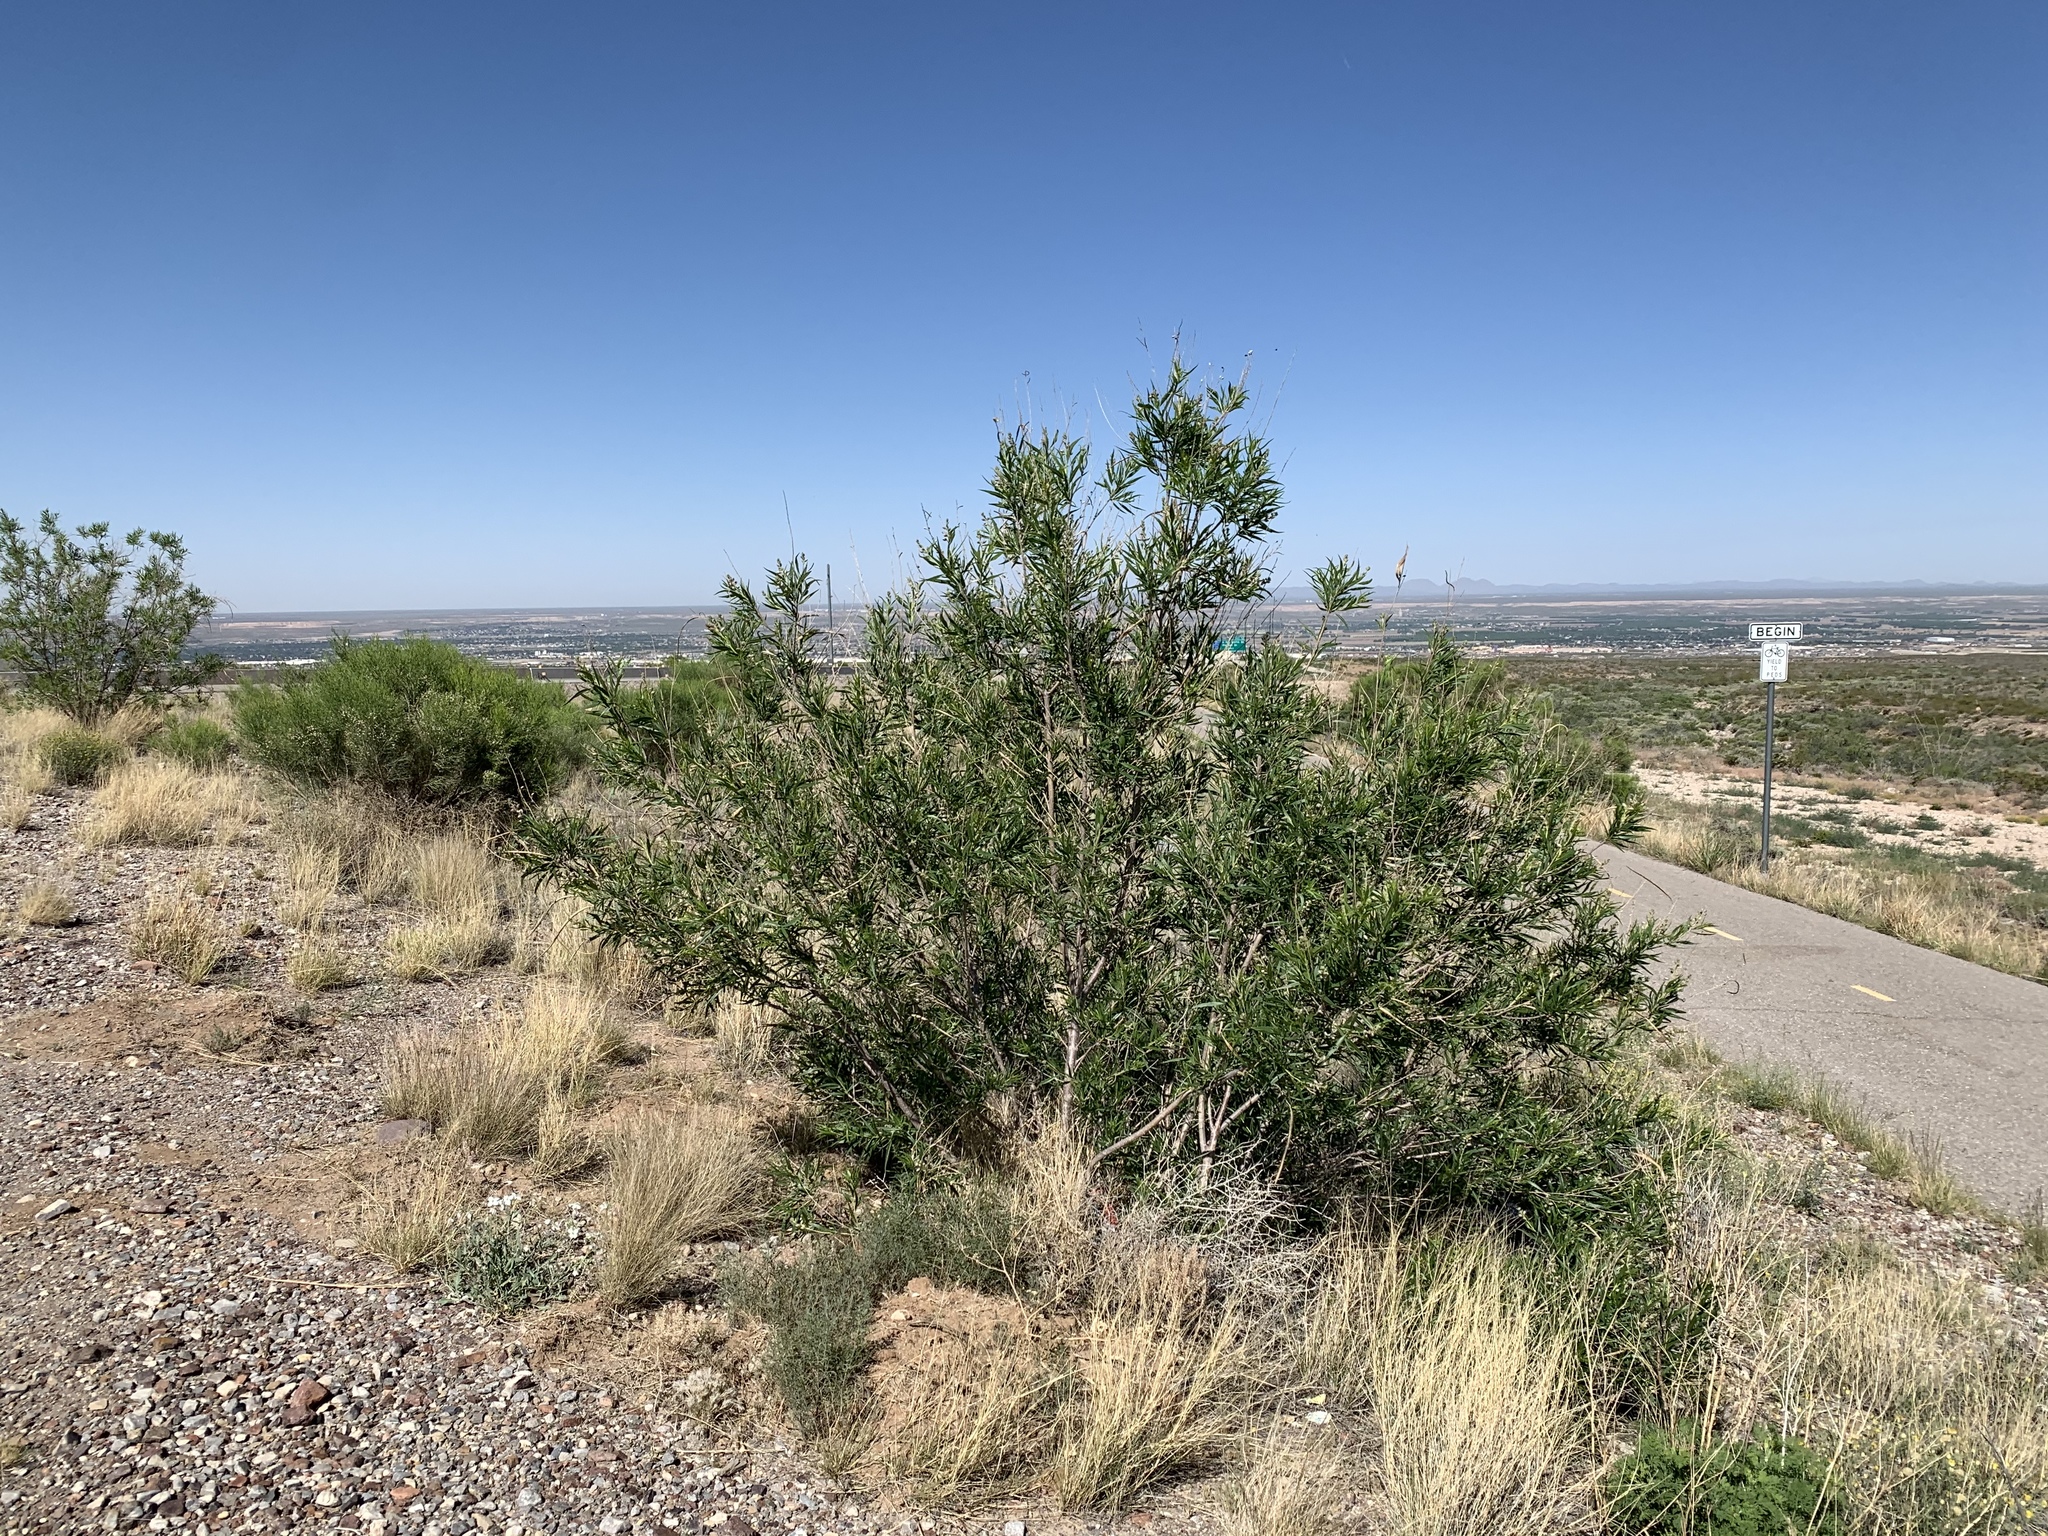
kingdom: Plantae
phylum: Tracheophyta
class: Magnoliopsida
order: Lamiales
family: Bignoniaceae
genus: Chilopsis
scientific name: Chilopsis linearis
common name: Desert-willow
